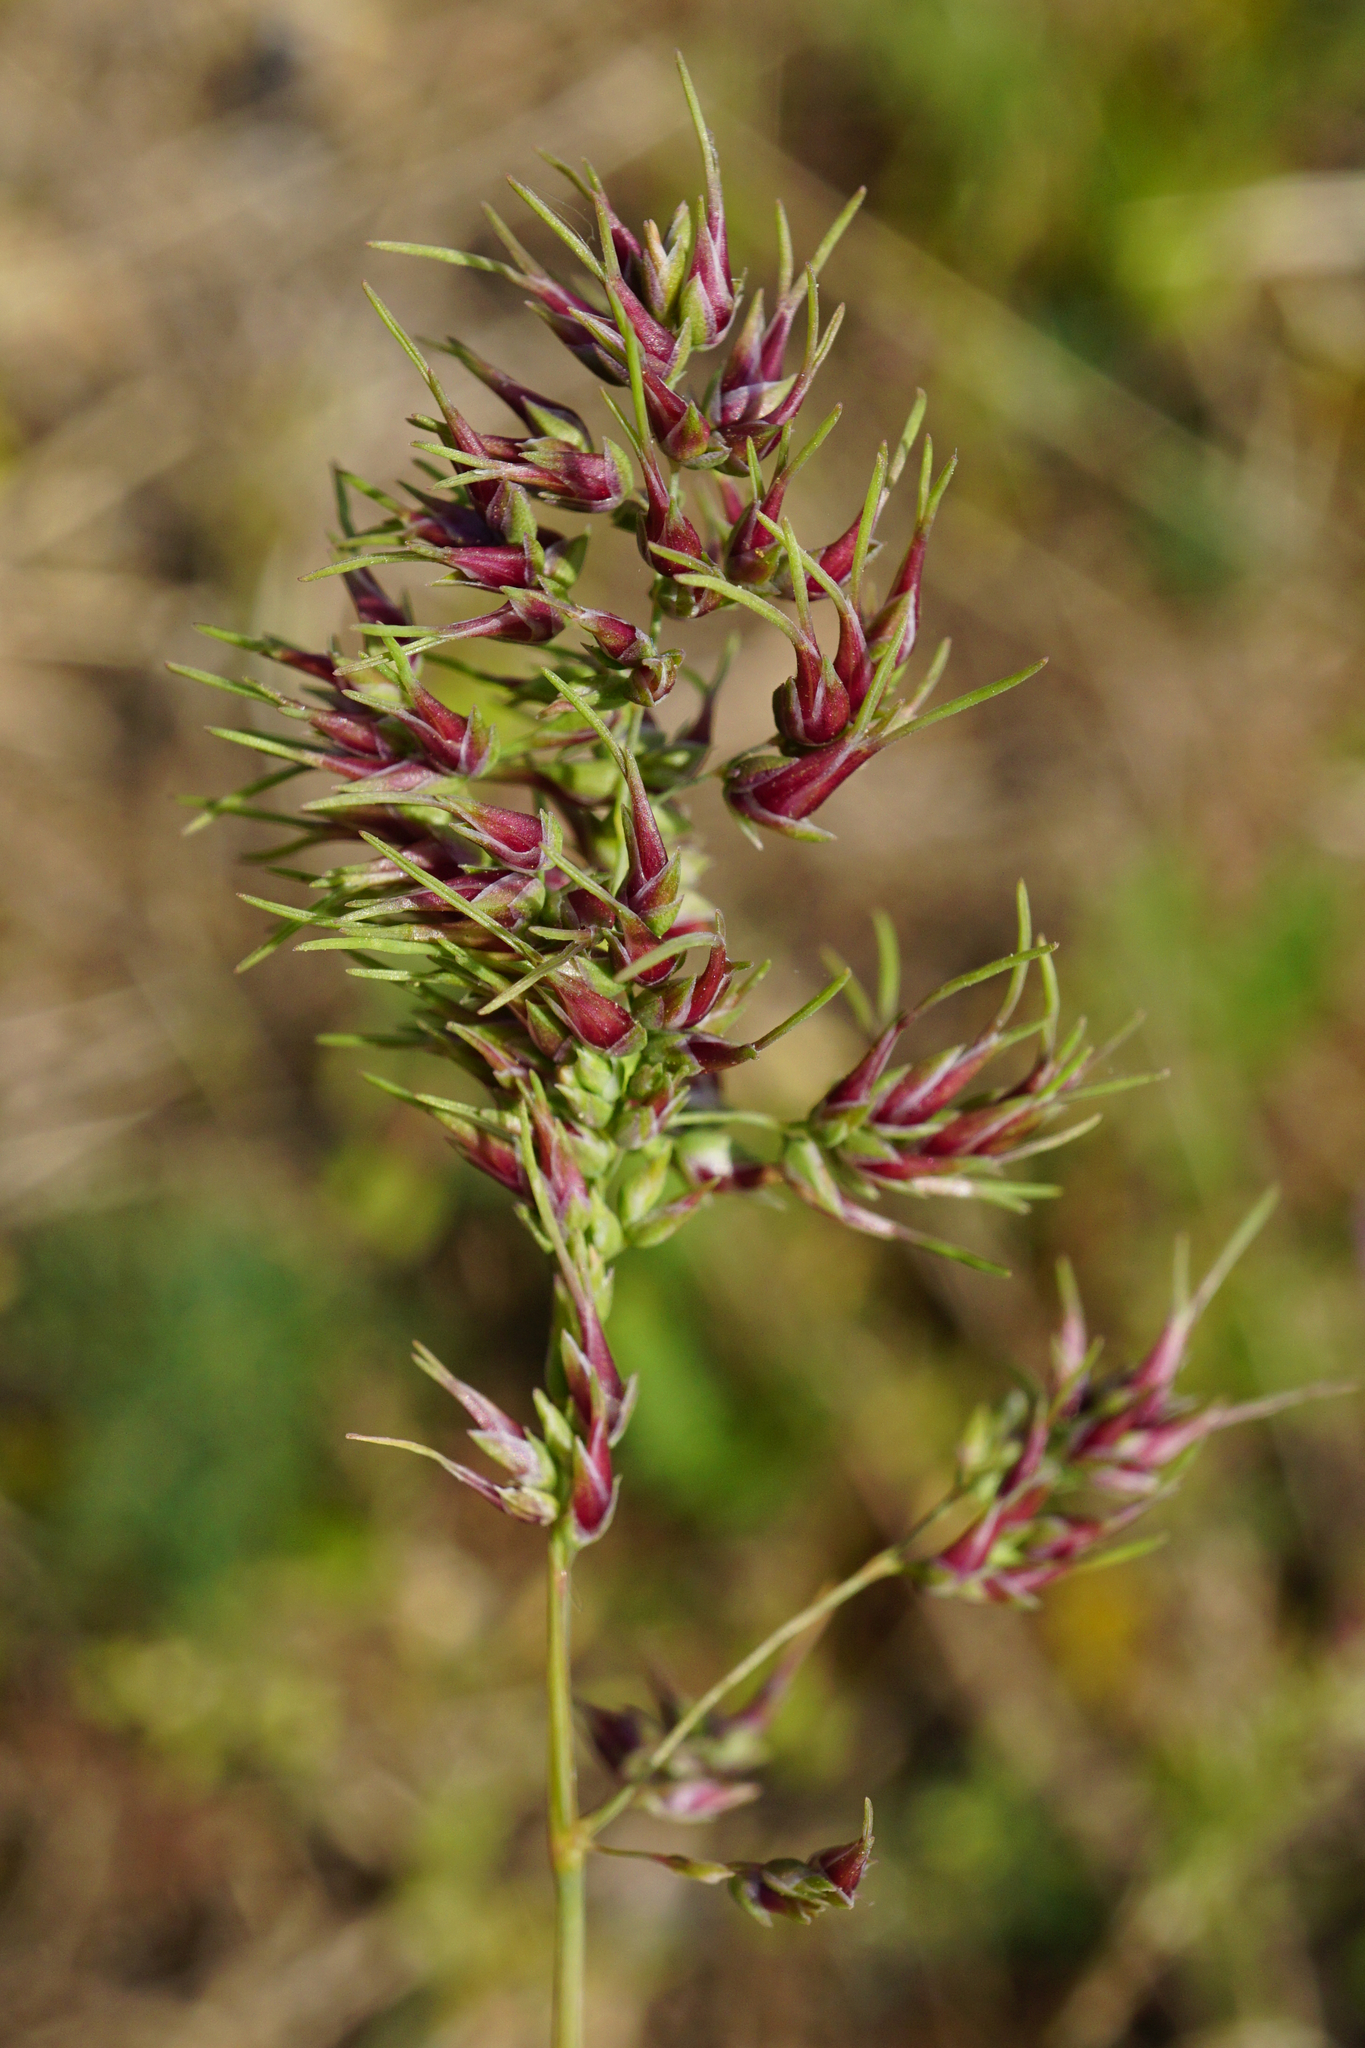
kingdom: Plantae
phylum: Tracheophyta
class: Liliopsida
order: Poales
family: Poaceae
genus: Poa
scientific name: Poa bulbosa
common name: Bulbous bluegrass
